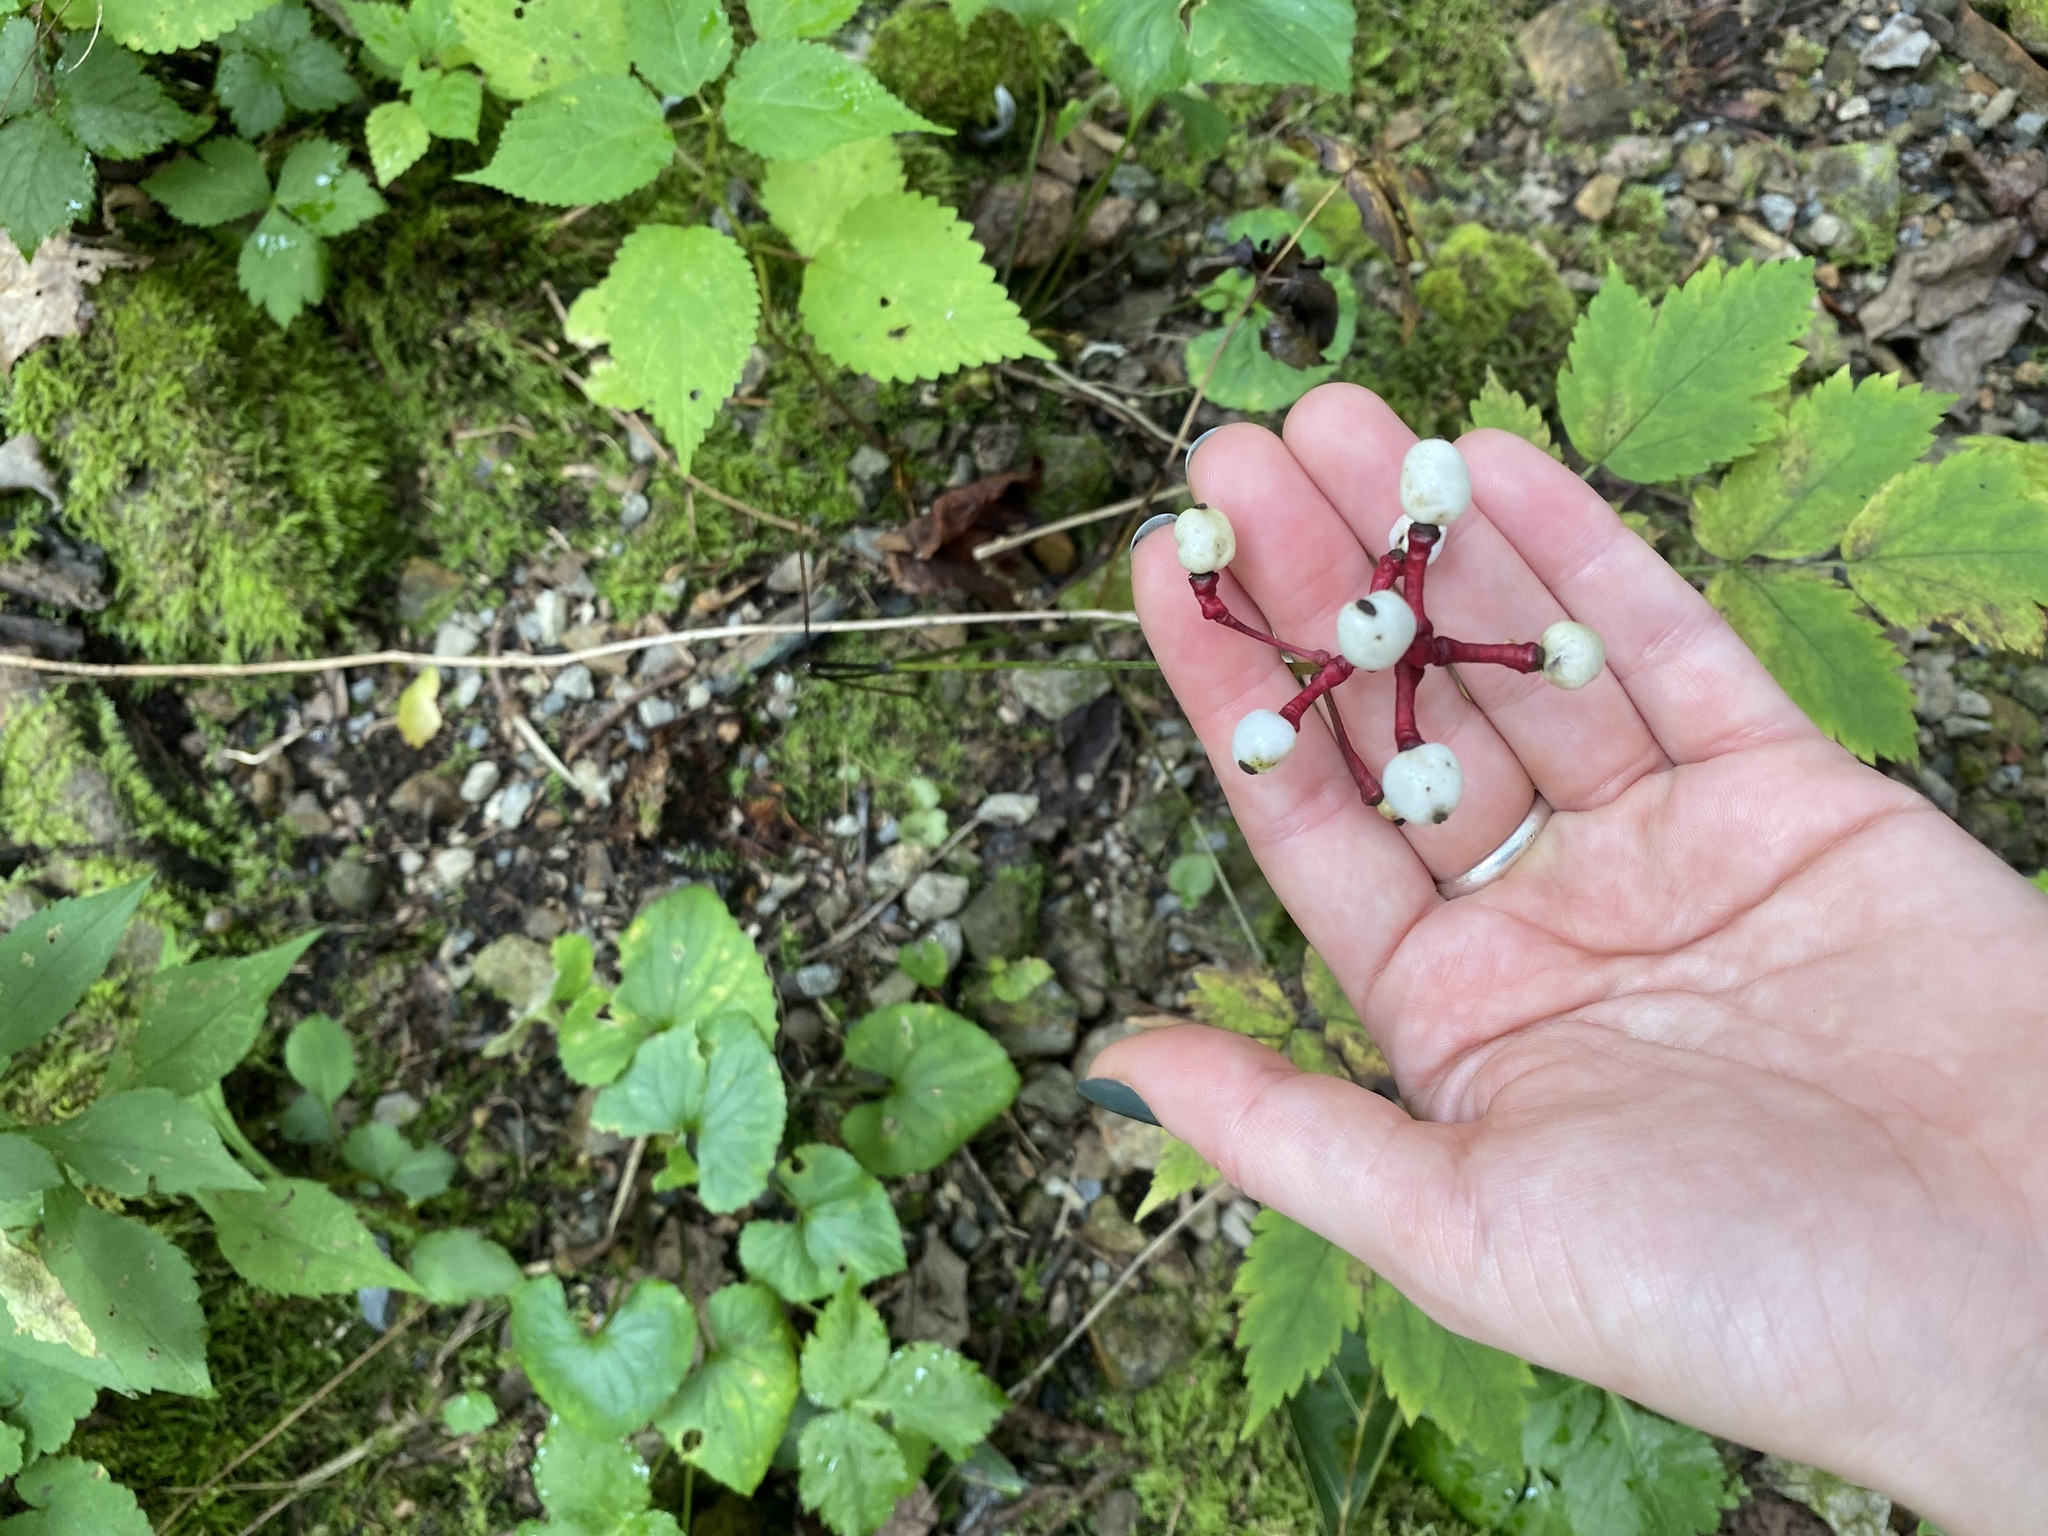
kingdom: Plantae
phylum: Tracheophyta
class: Magnoliopsida
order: Ranunculales
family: Ranunculaceae
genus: Actaea
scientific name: Actaea pachypoda
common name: Doll's-eyes
